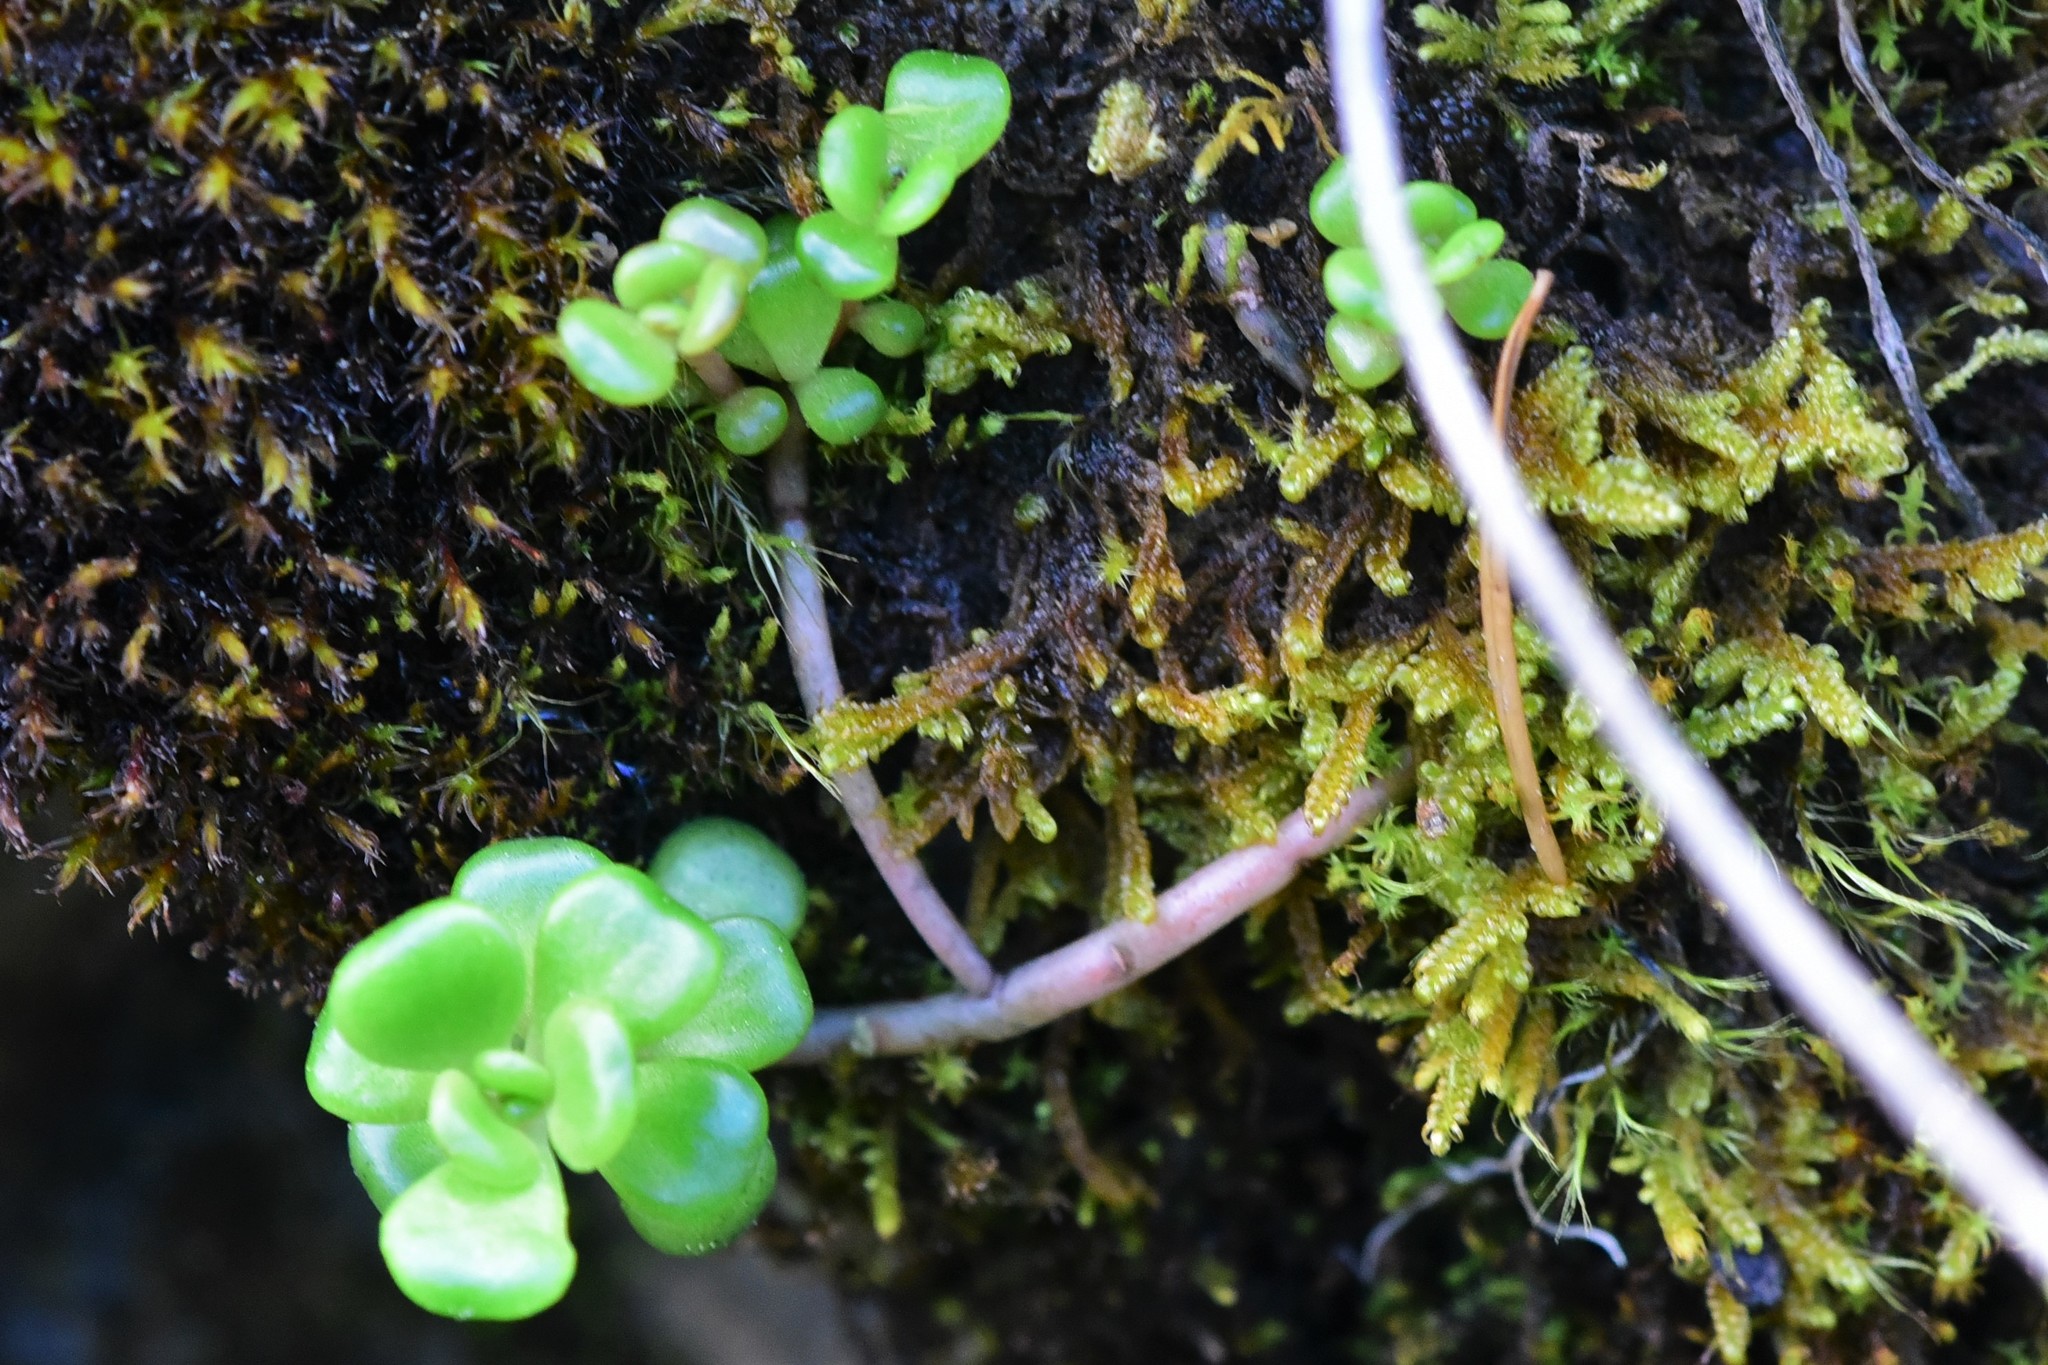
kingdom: Plantae
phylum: Tracheophyta
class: Magnoliopsida
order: Saxifragales
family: Crassulaceae
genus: Sedum
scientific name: Sedum oreganum
